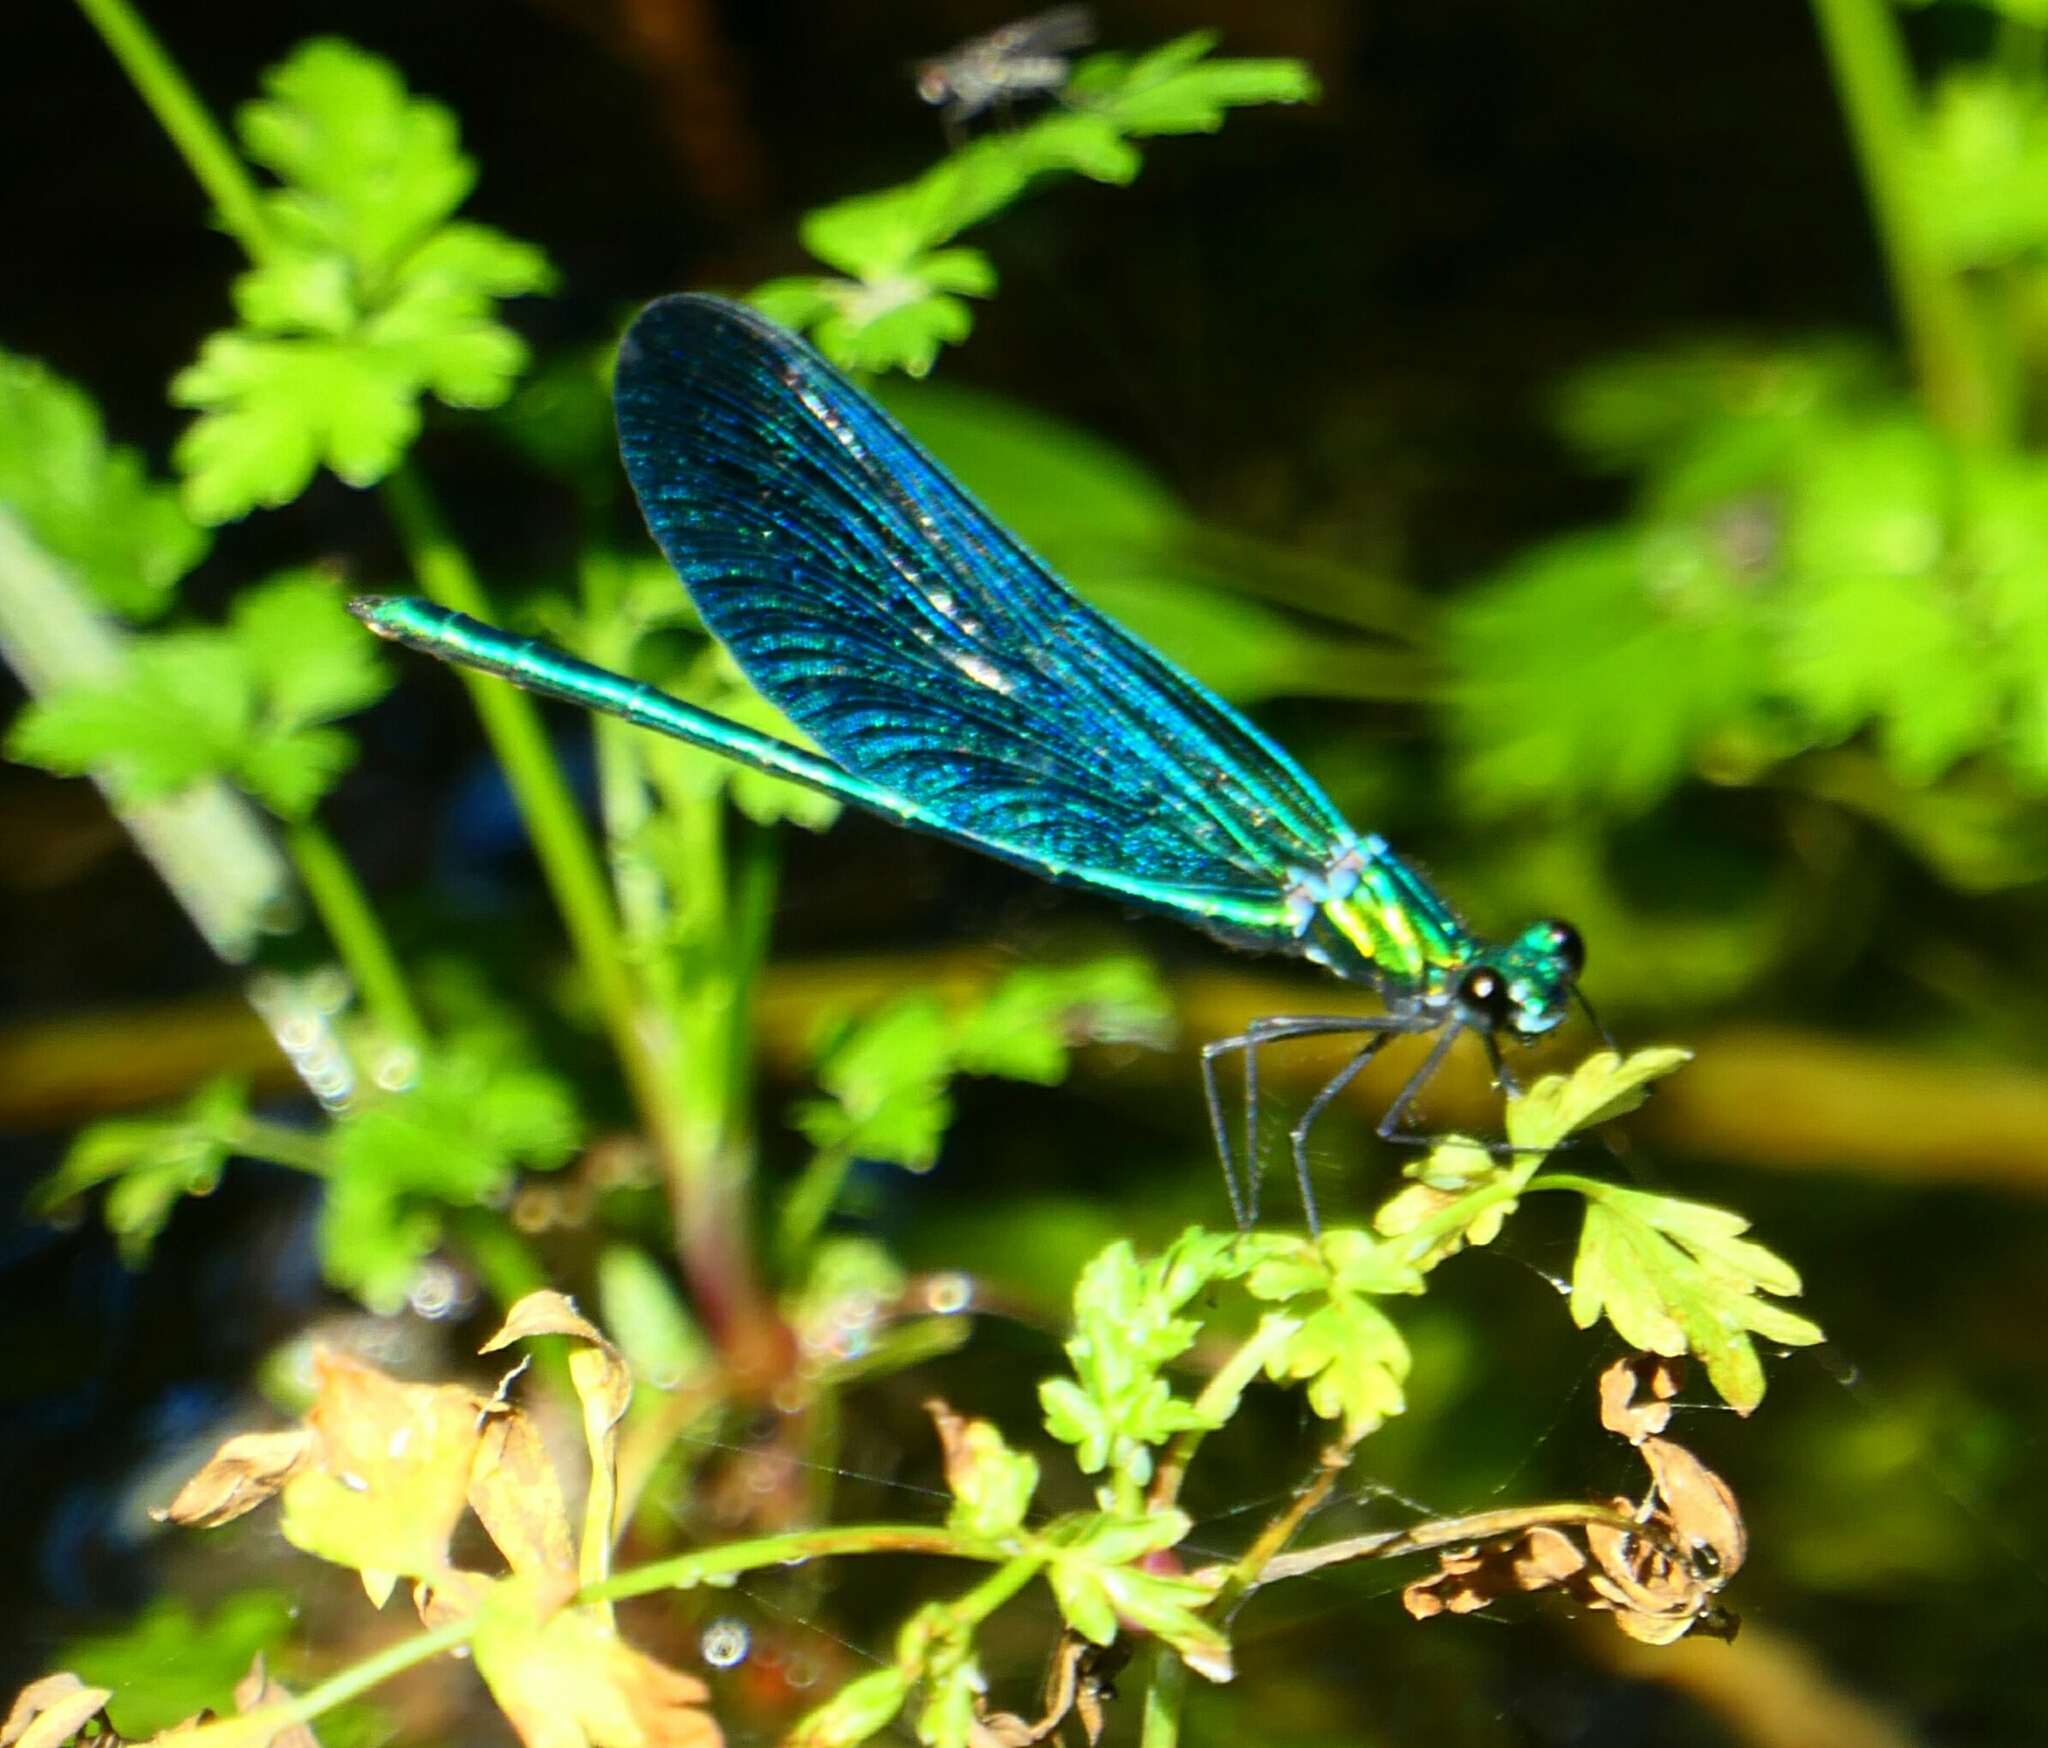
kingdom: Animalia
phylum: Arthropoda
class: Insecta
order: Odonata
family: Calopterygidae
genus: Calopteryx
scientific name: Calopteryx virgo
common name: Beautiful demoiselle
